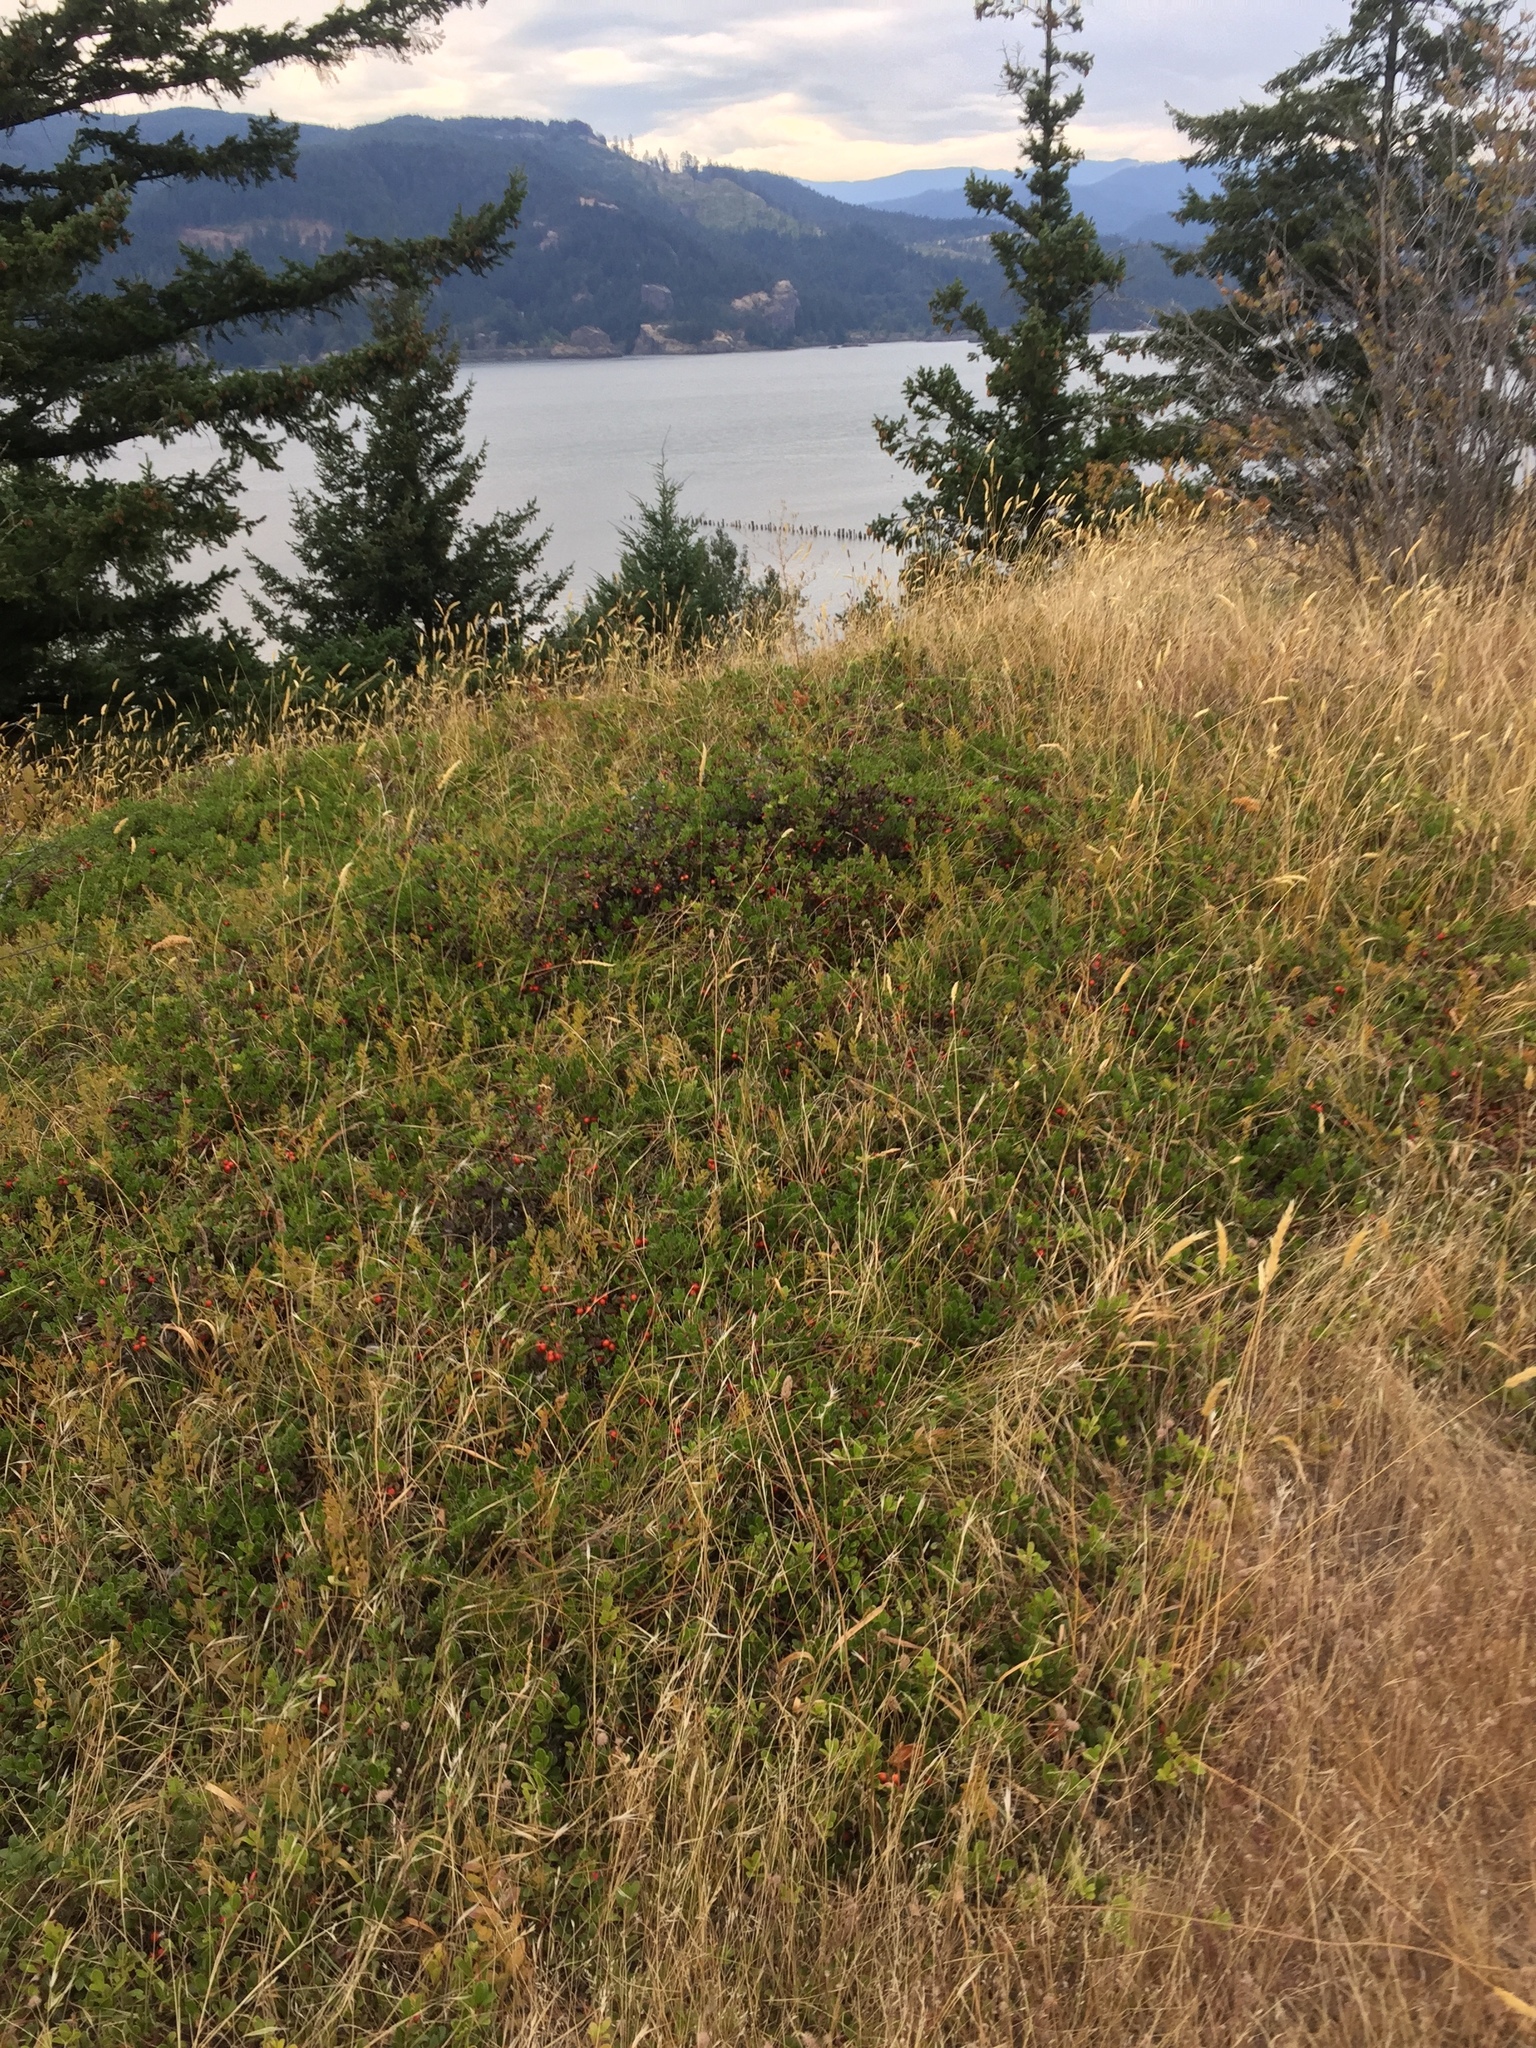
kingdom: Plantae
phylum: Tracheophyta
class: Magnoliopsida
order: Ericales
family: Ericaceae
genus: Arctostaphylos
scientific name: Arctostaphylos uva-ursi
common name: Bearberry
